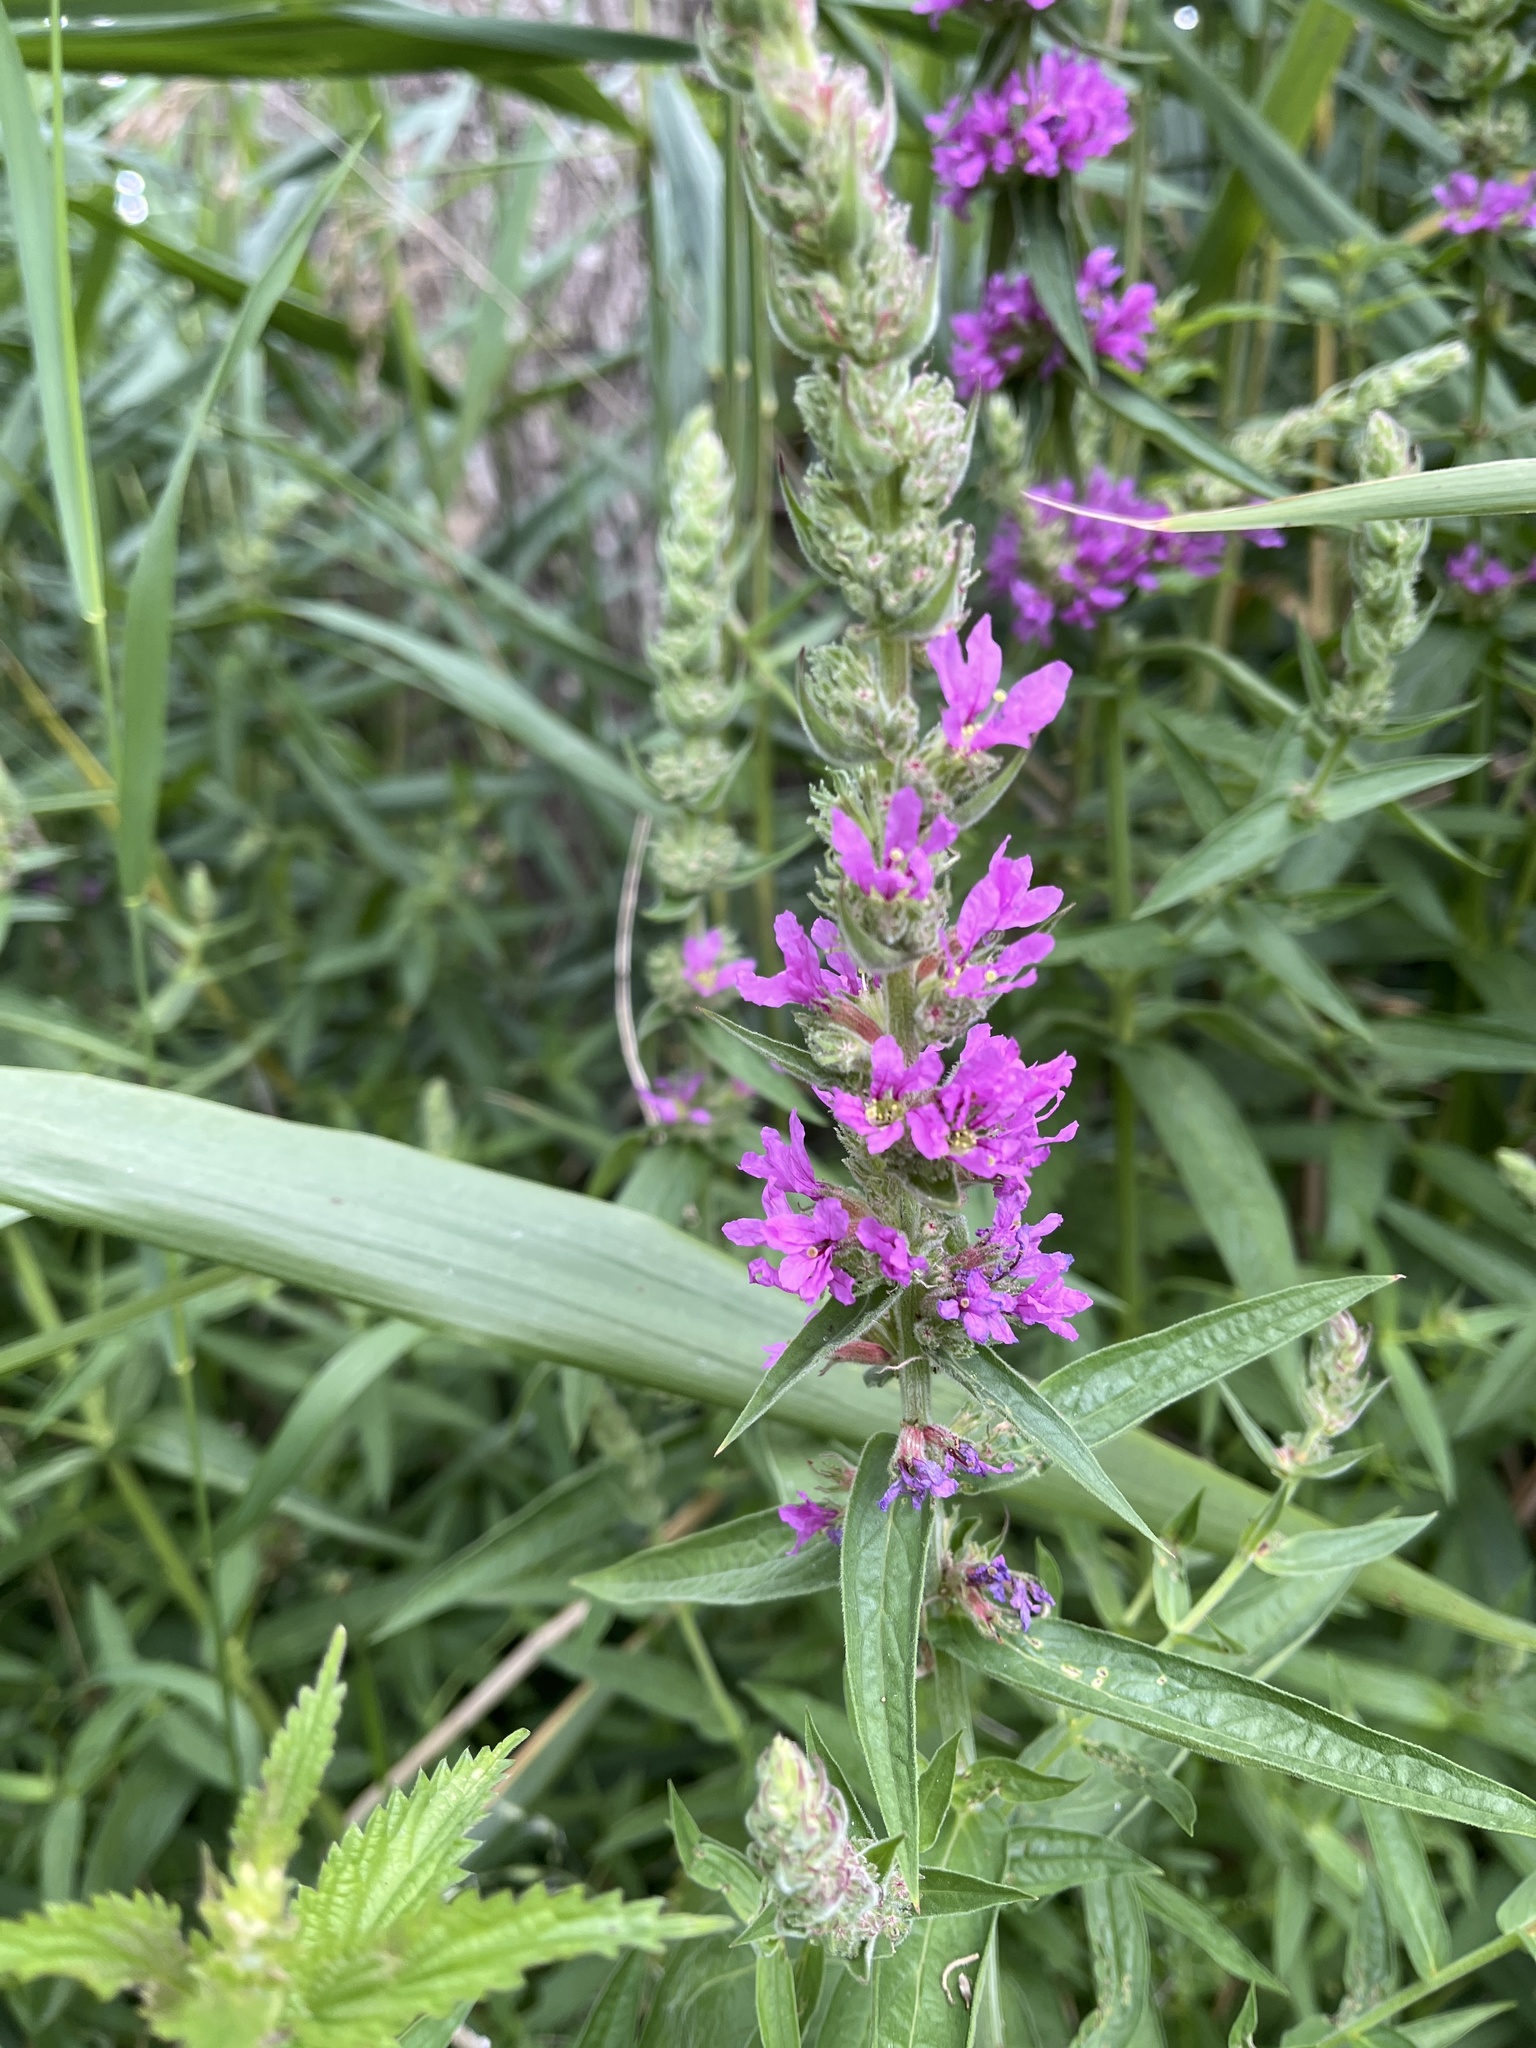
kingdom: Plantae
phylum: Tracheophyta
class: Magnoliopsida
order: Myrtales
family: Lythraceae
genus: Lythrum
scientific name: Lythrum salicaria
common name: Purple loosestrife
